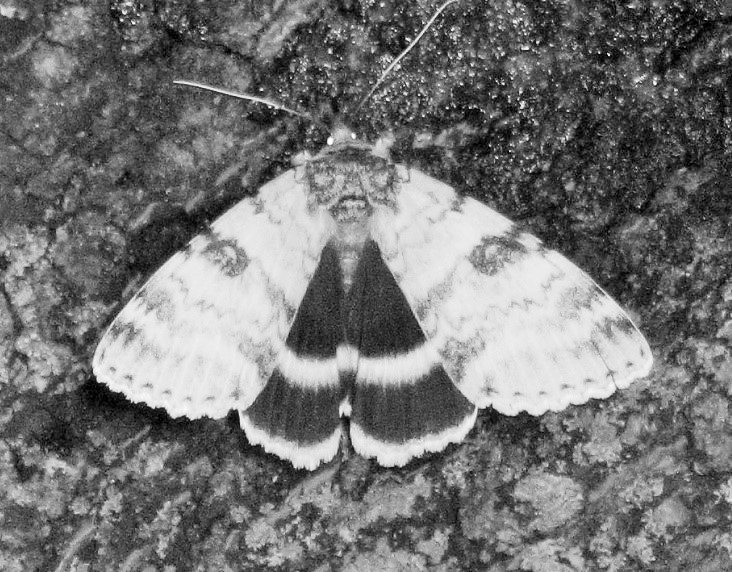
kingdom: Animalia
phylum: Arthropoda
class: Insecta
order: Lepidoptera
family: Erebidae
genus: Catocala
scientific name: Catocala relicta
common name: White underwing
